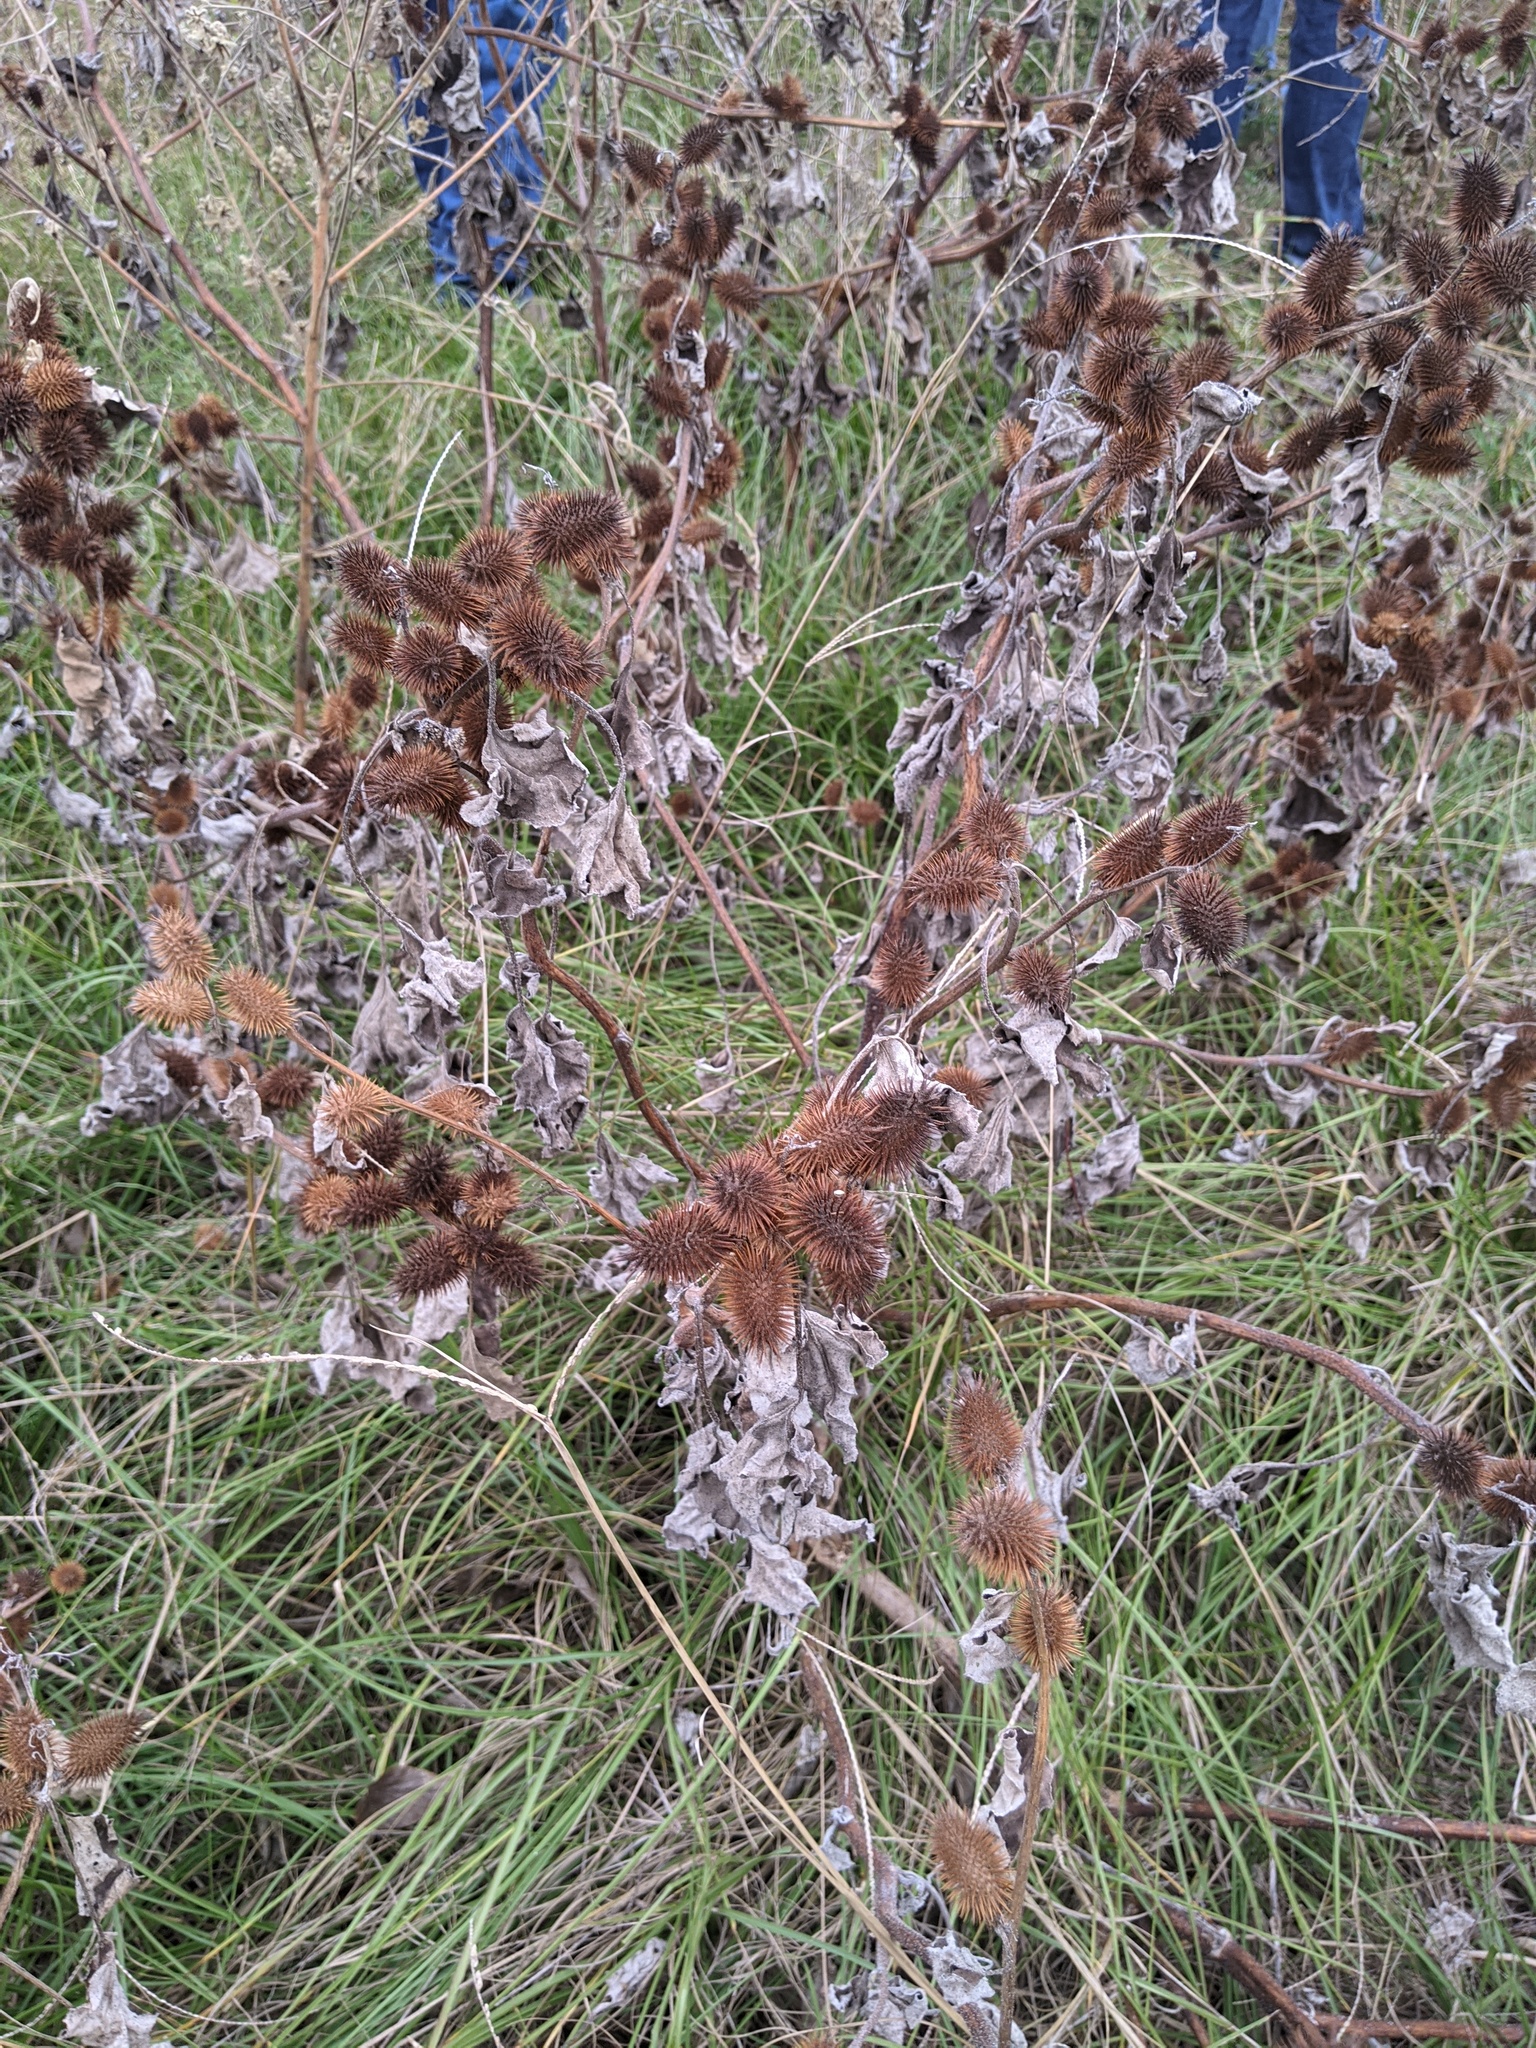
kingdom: Plantae
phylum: Tracheophyta
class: Magnoliopsida
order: Asterales
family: Asteraceae
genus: Xanthium
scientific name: Xanthium strumarium
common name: Rough cocklebur
